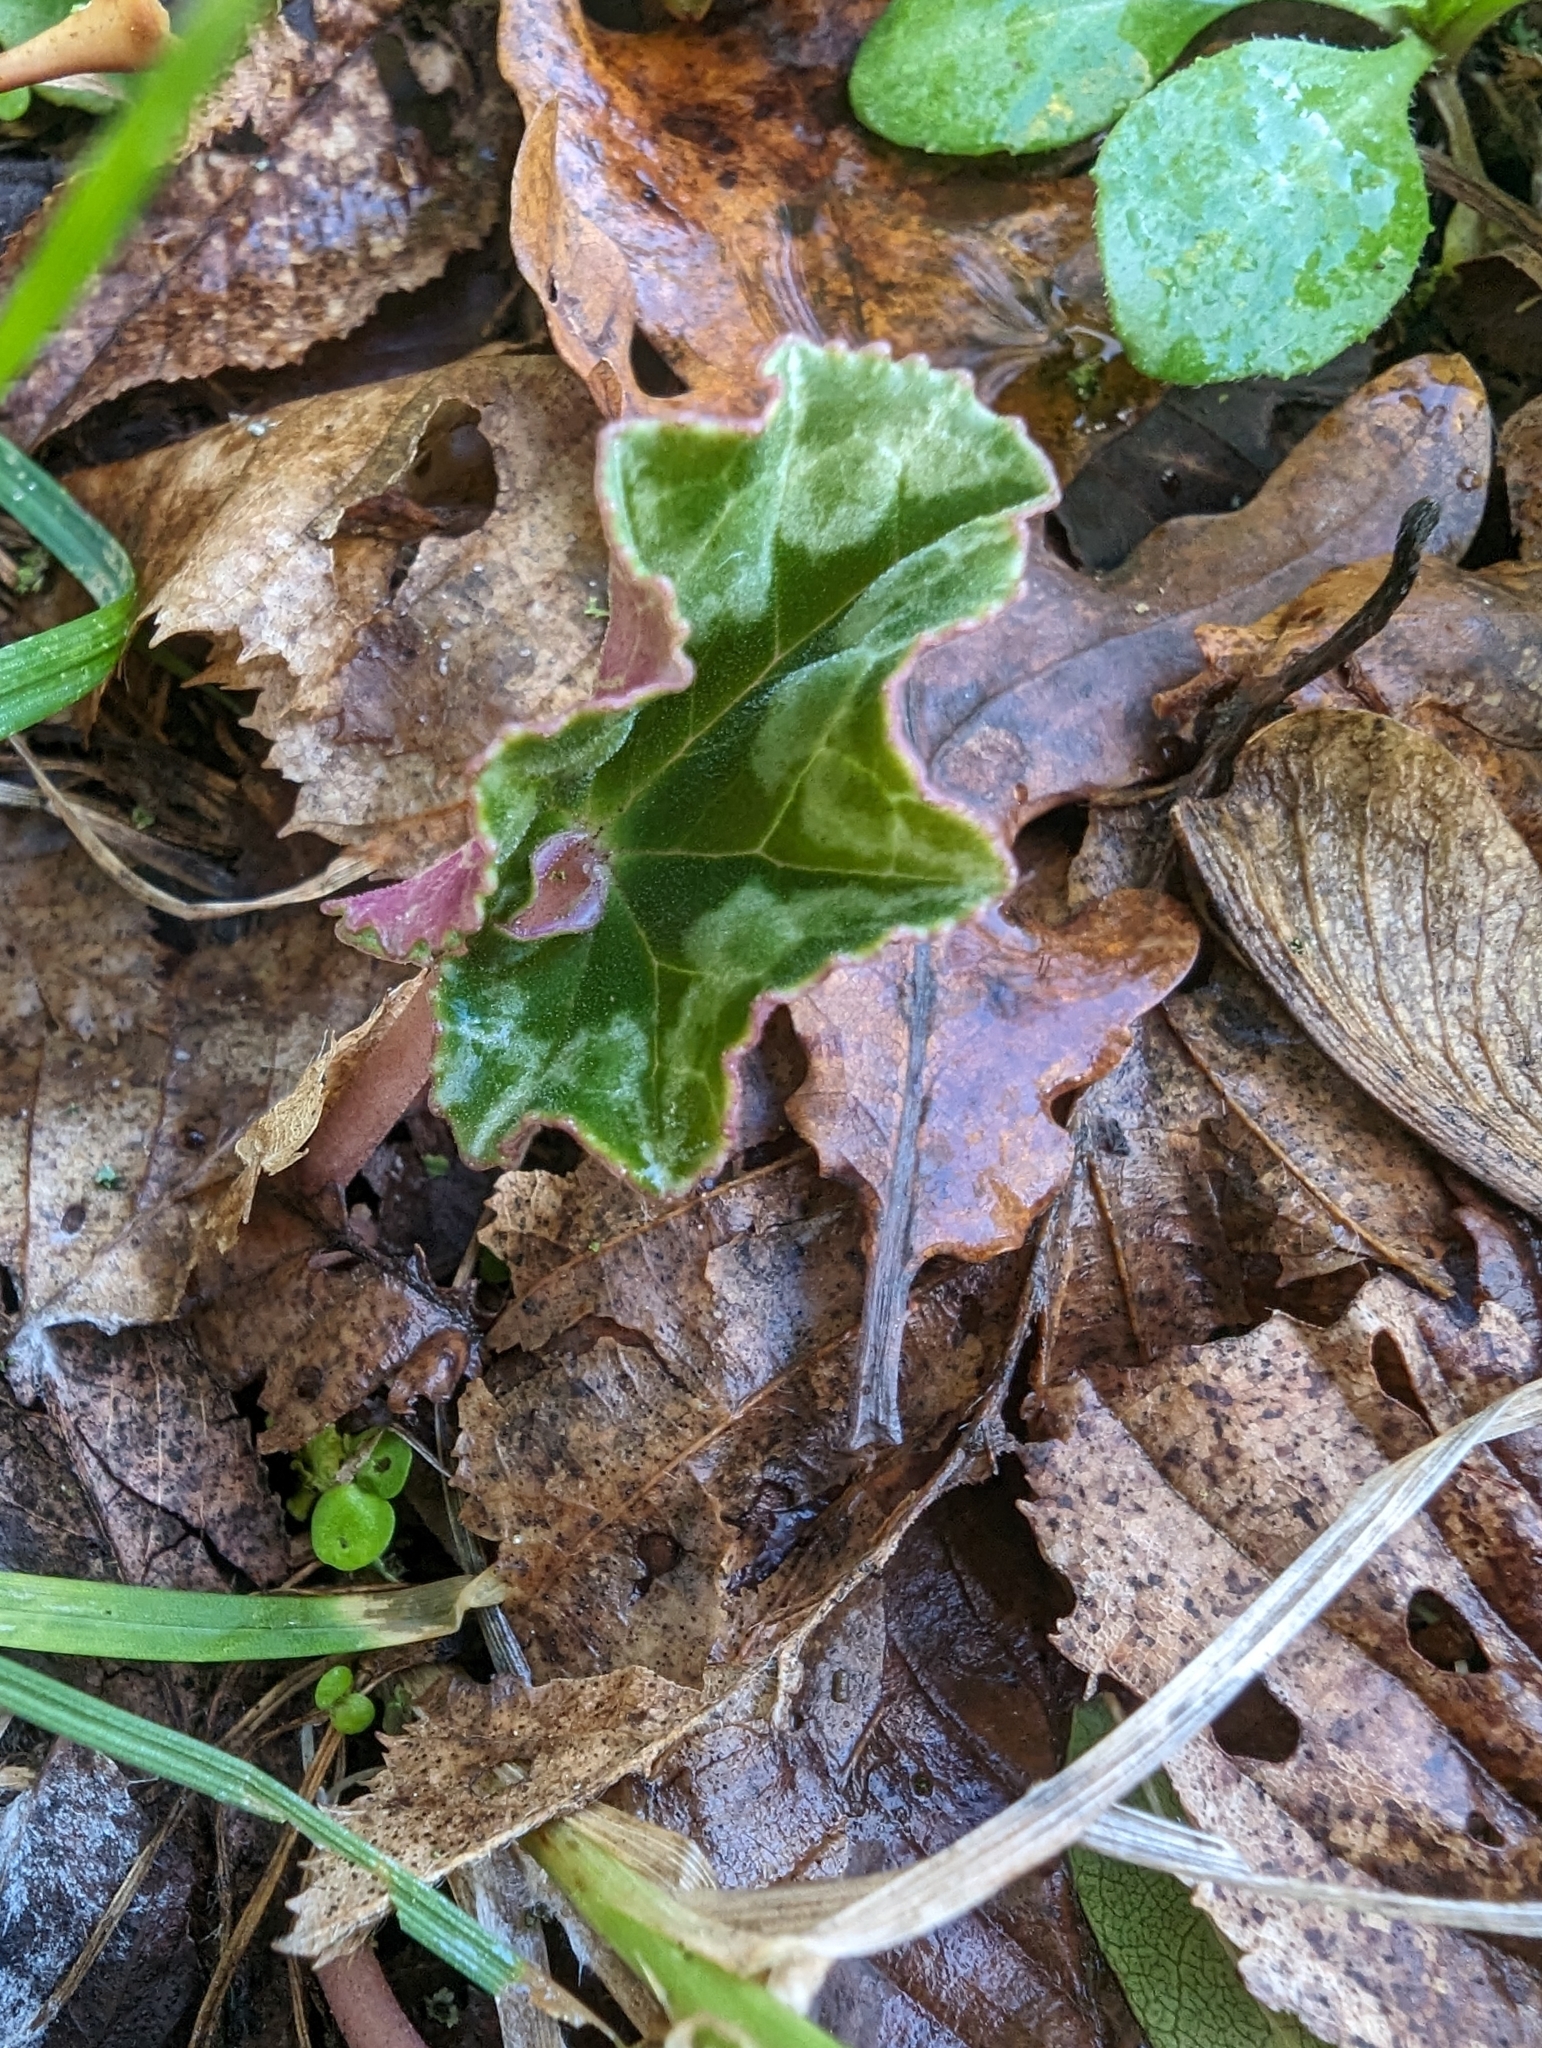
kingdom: Plantae
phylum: Tracheophyta
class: Magnoliopsida
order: Ericales
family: Primulaceae
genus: Cyclamen
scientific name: Cyclamen hederifolium
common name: Sowbread
